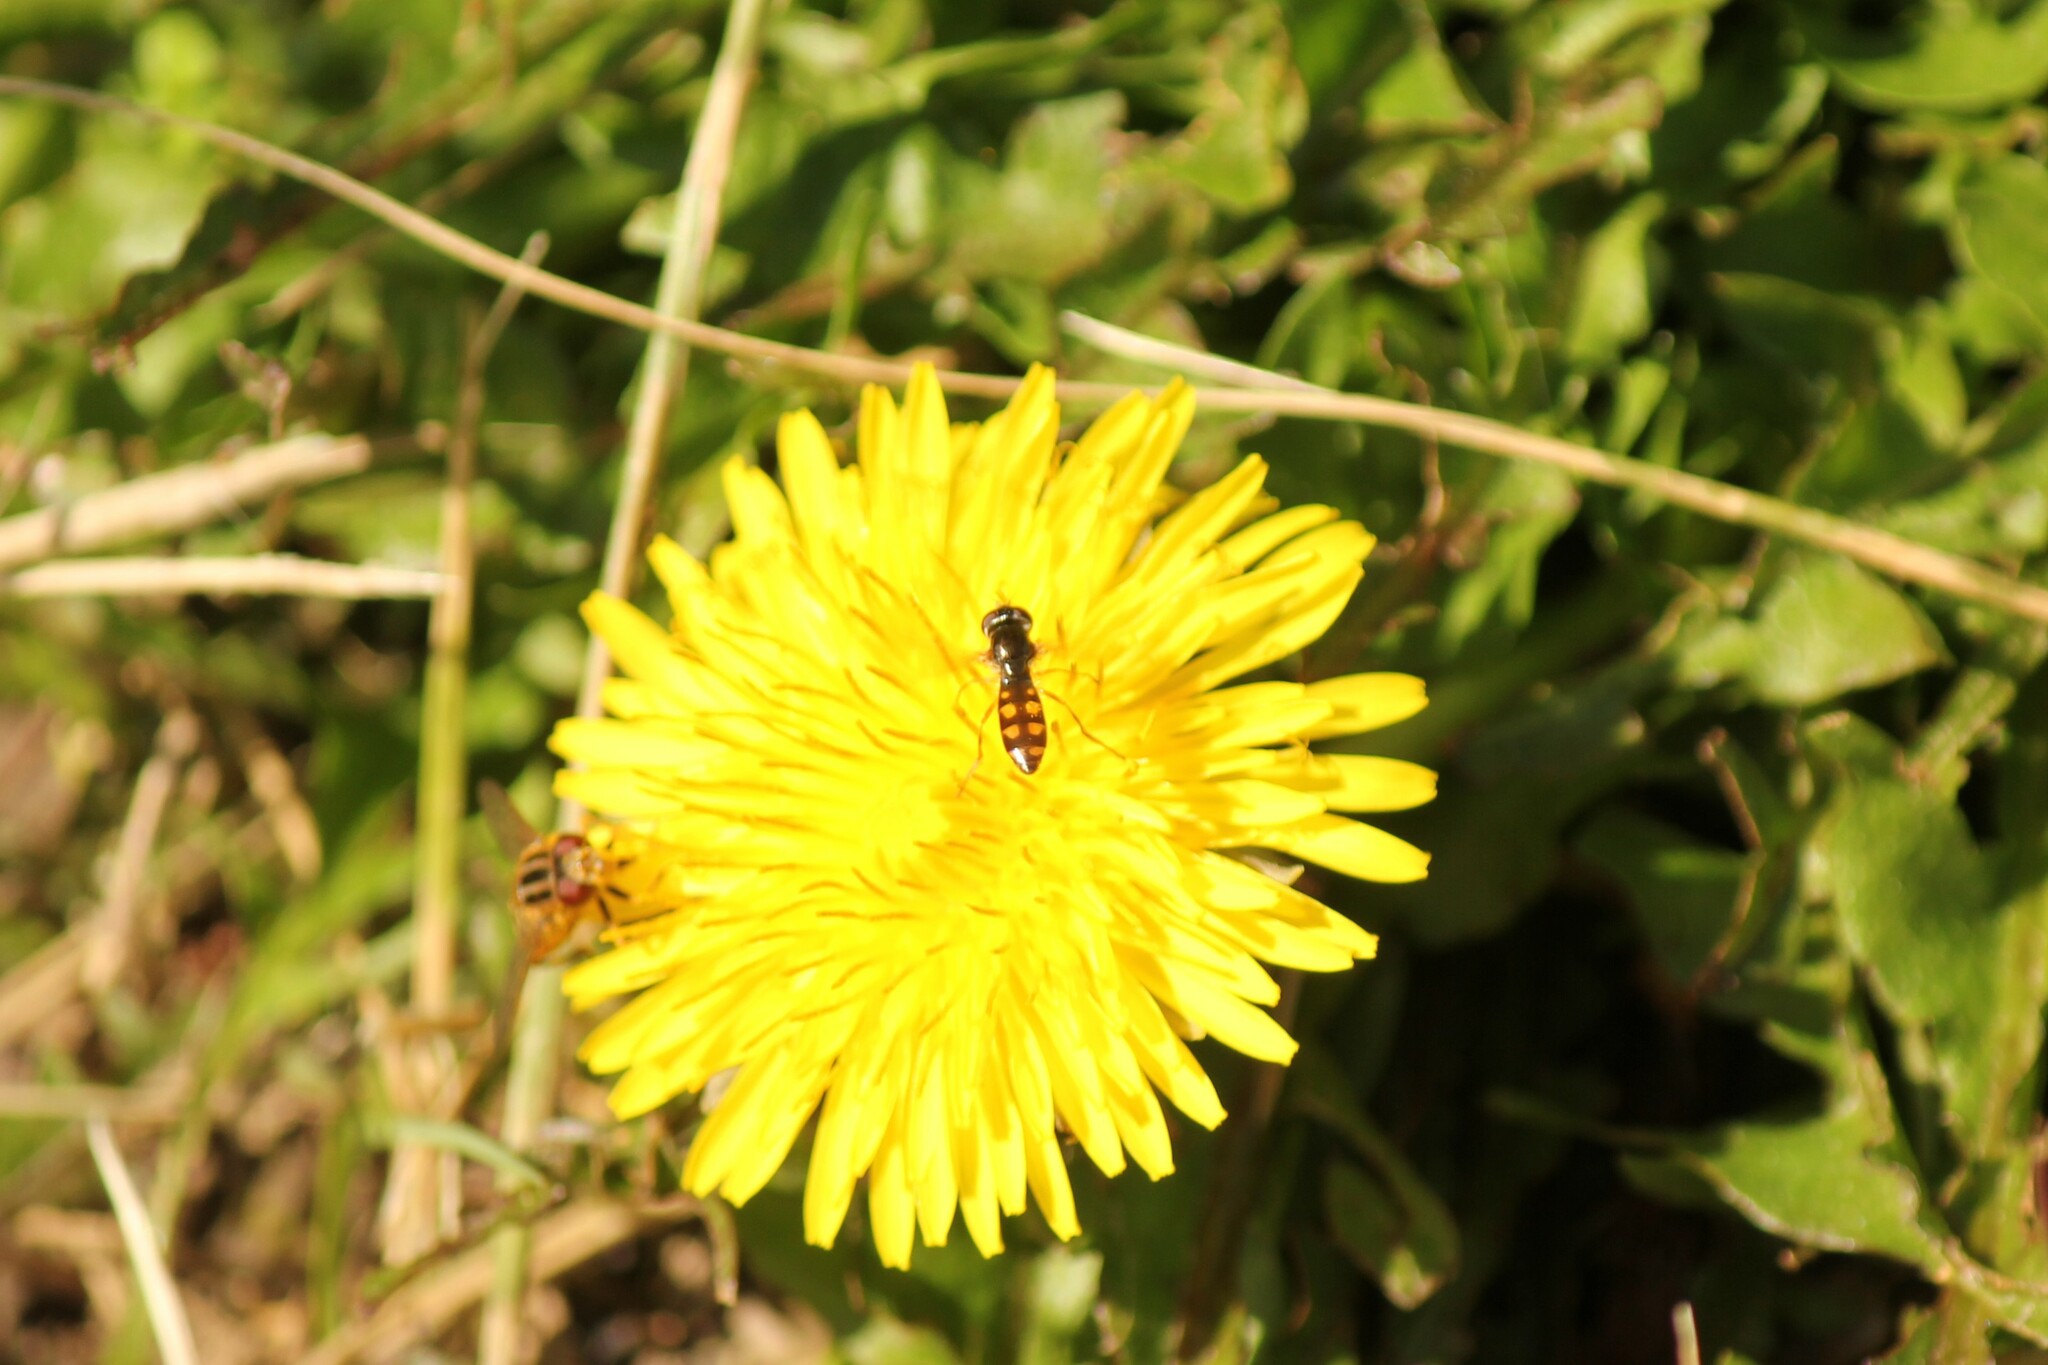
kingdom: Animalia
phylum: Arthropoda
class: Insecta
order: Diptera
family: Syrphidae
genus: Melanostoma
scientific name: Melanostoma mellina
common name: Hover fly
